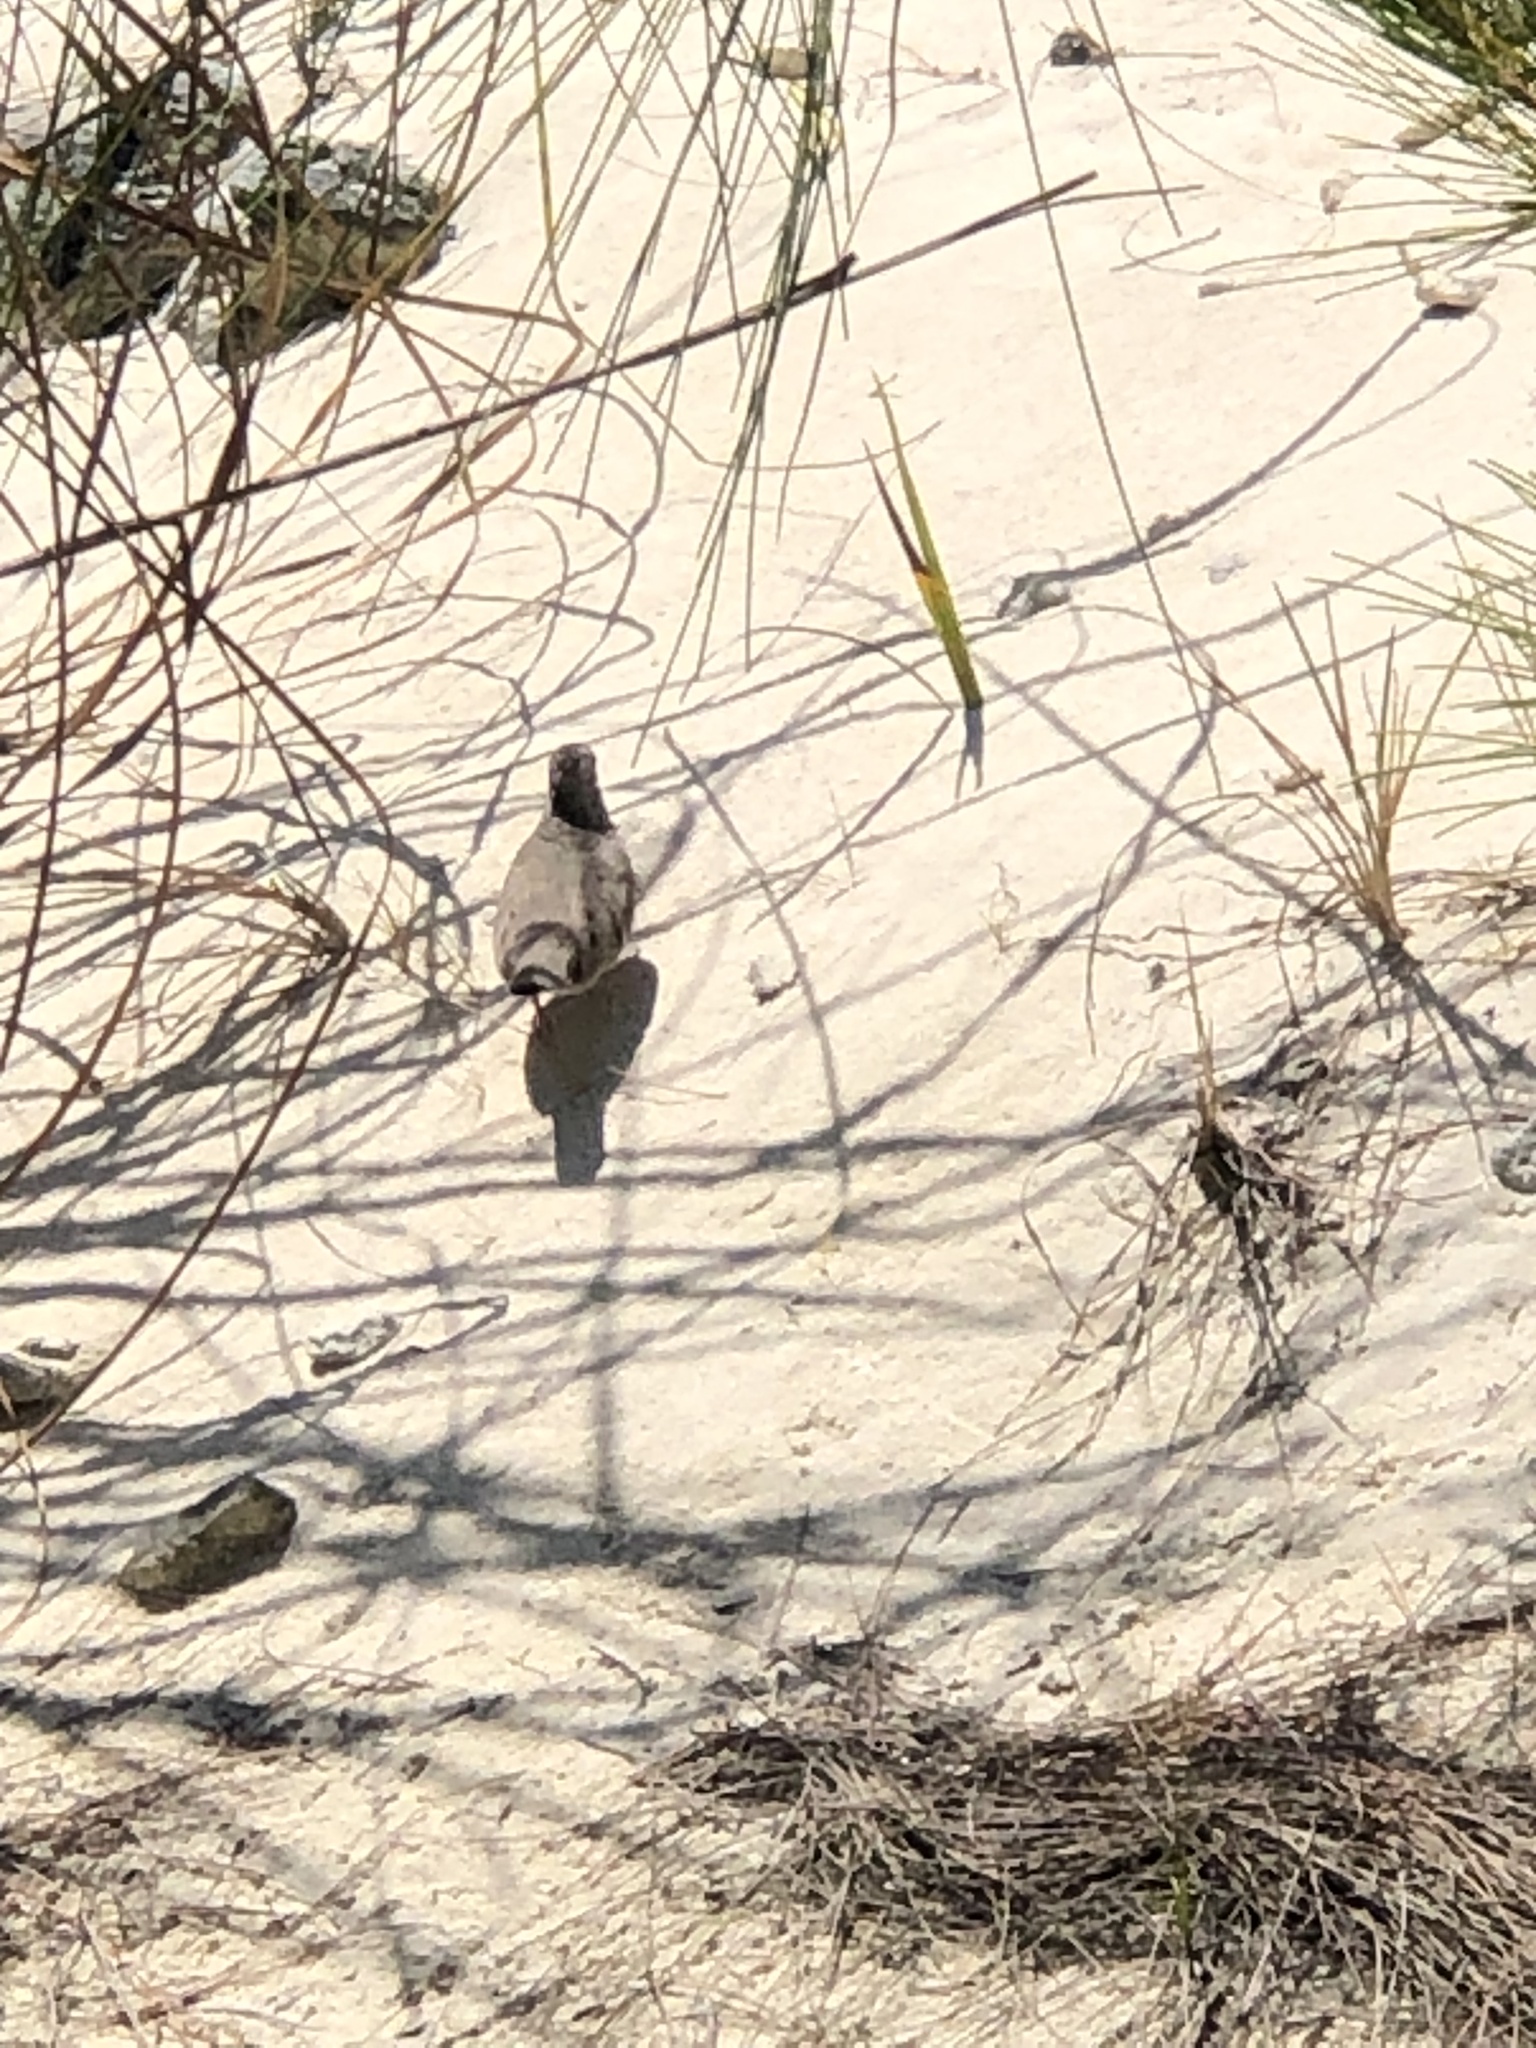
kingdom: Animalia
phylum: Chordata
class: Aves
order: Columbiformes
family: Columbidae
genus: Columbina
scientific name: Columbina passerina
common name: Common ground-dove
